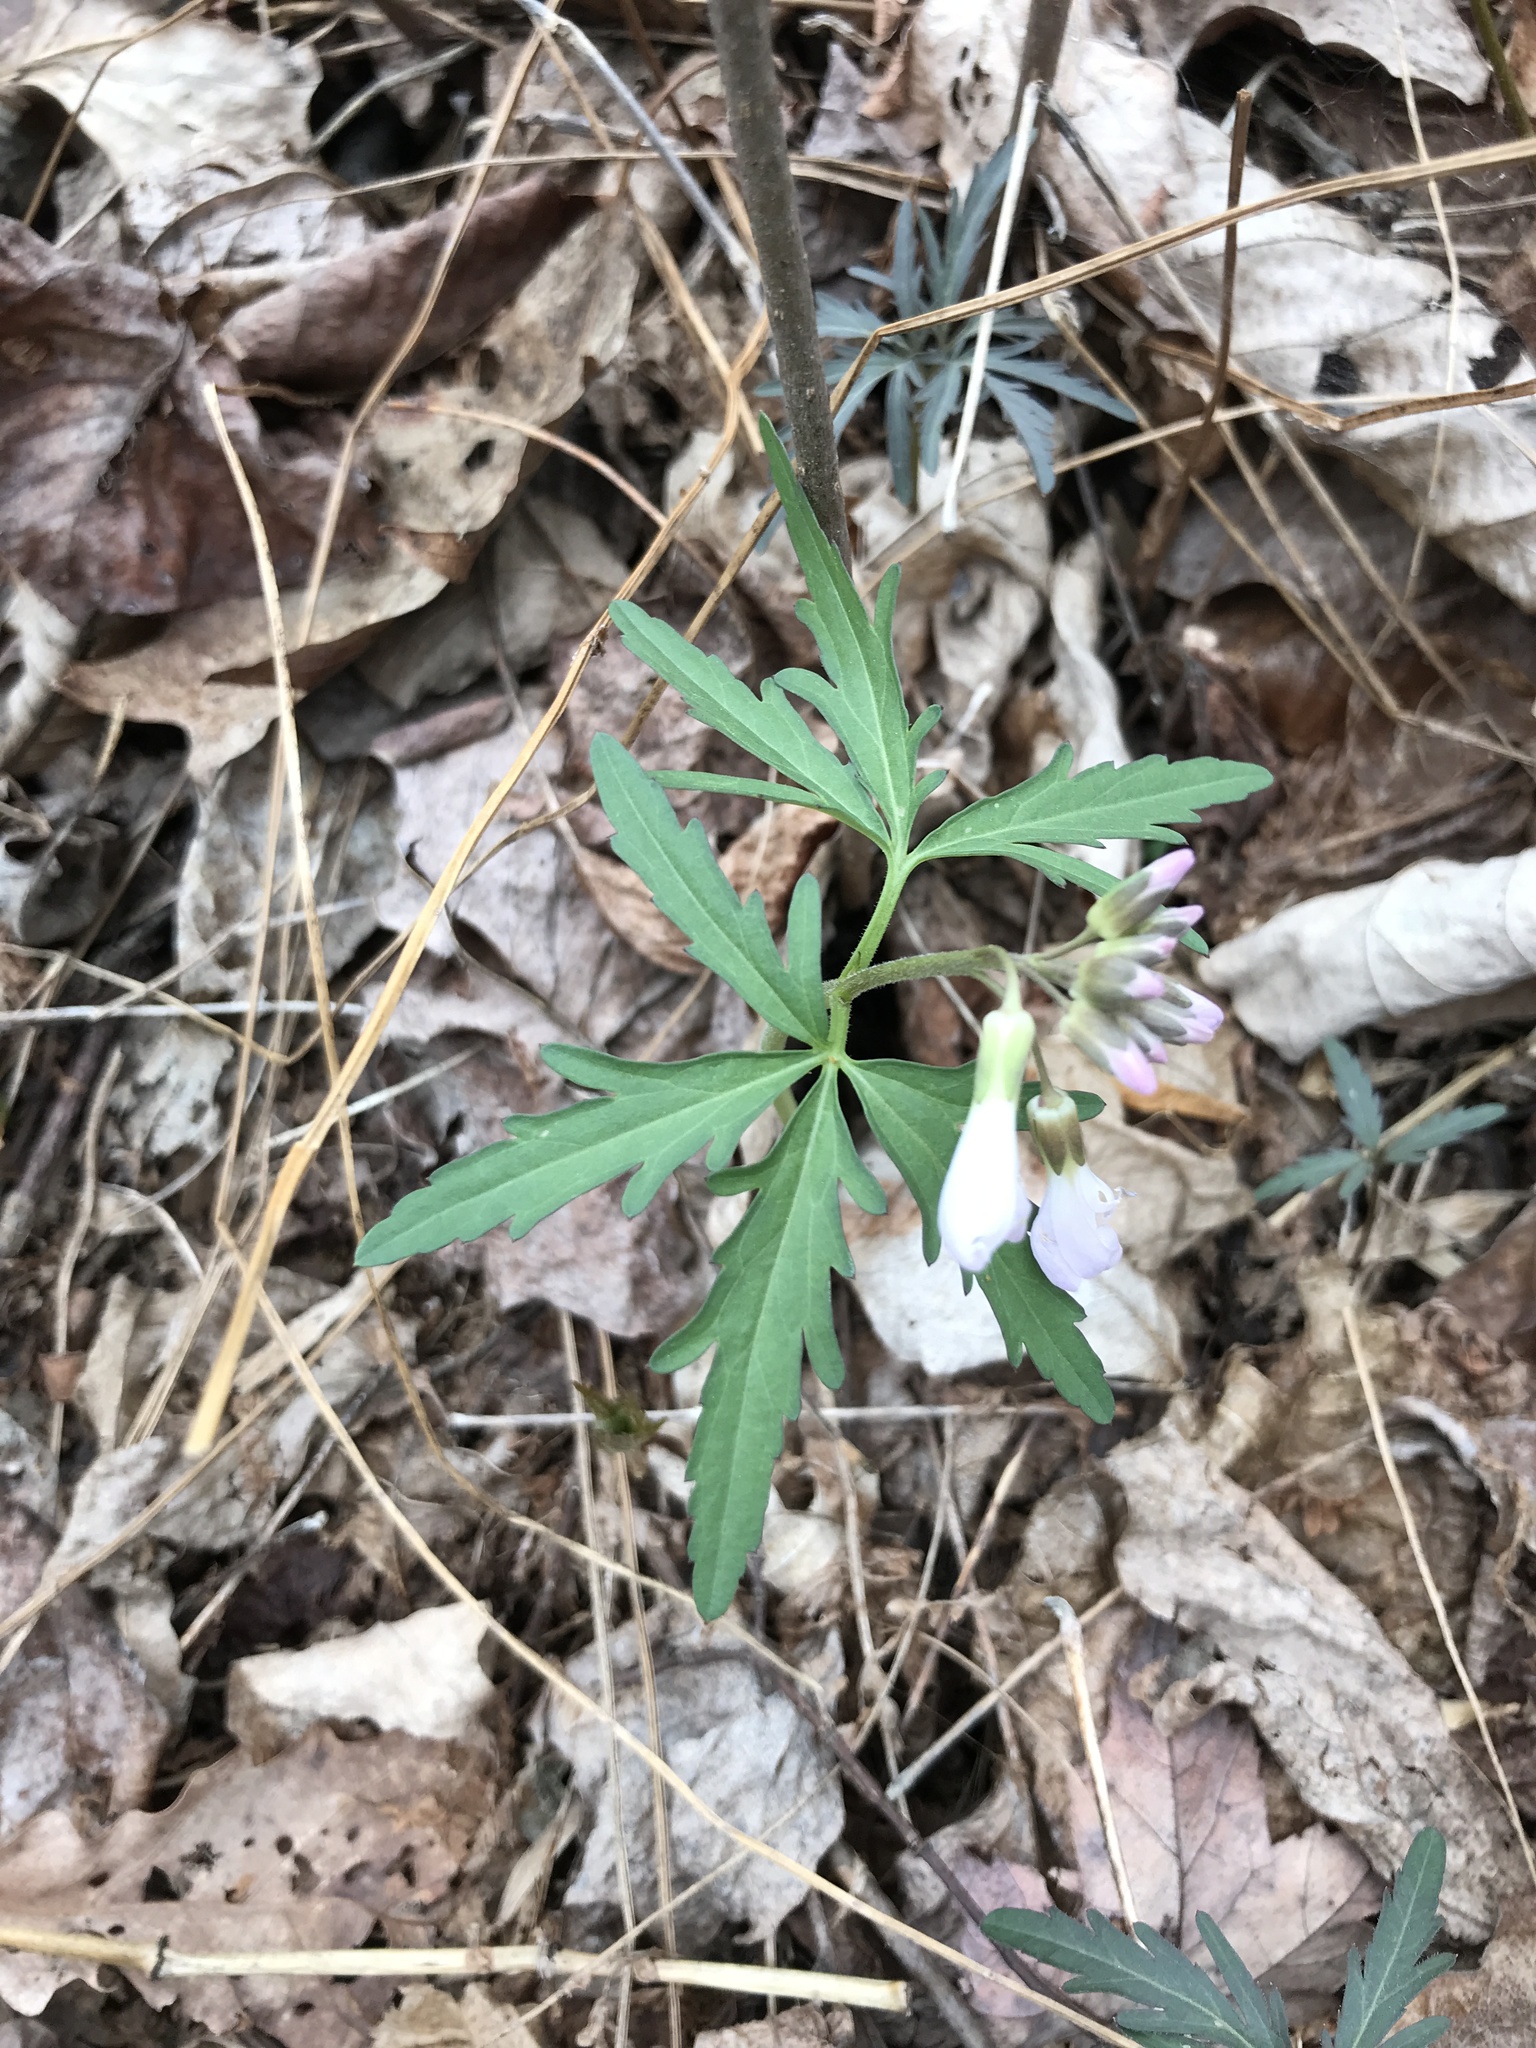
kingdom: Plantae
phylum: Tracheophyta
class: Magnoliopsida
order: Brassicales
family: Brassicaceae
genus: Cardamine
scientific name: Cardamine concatenata
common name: Cut-leaf toothcup
